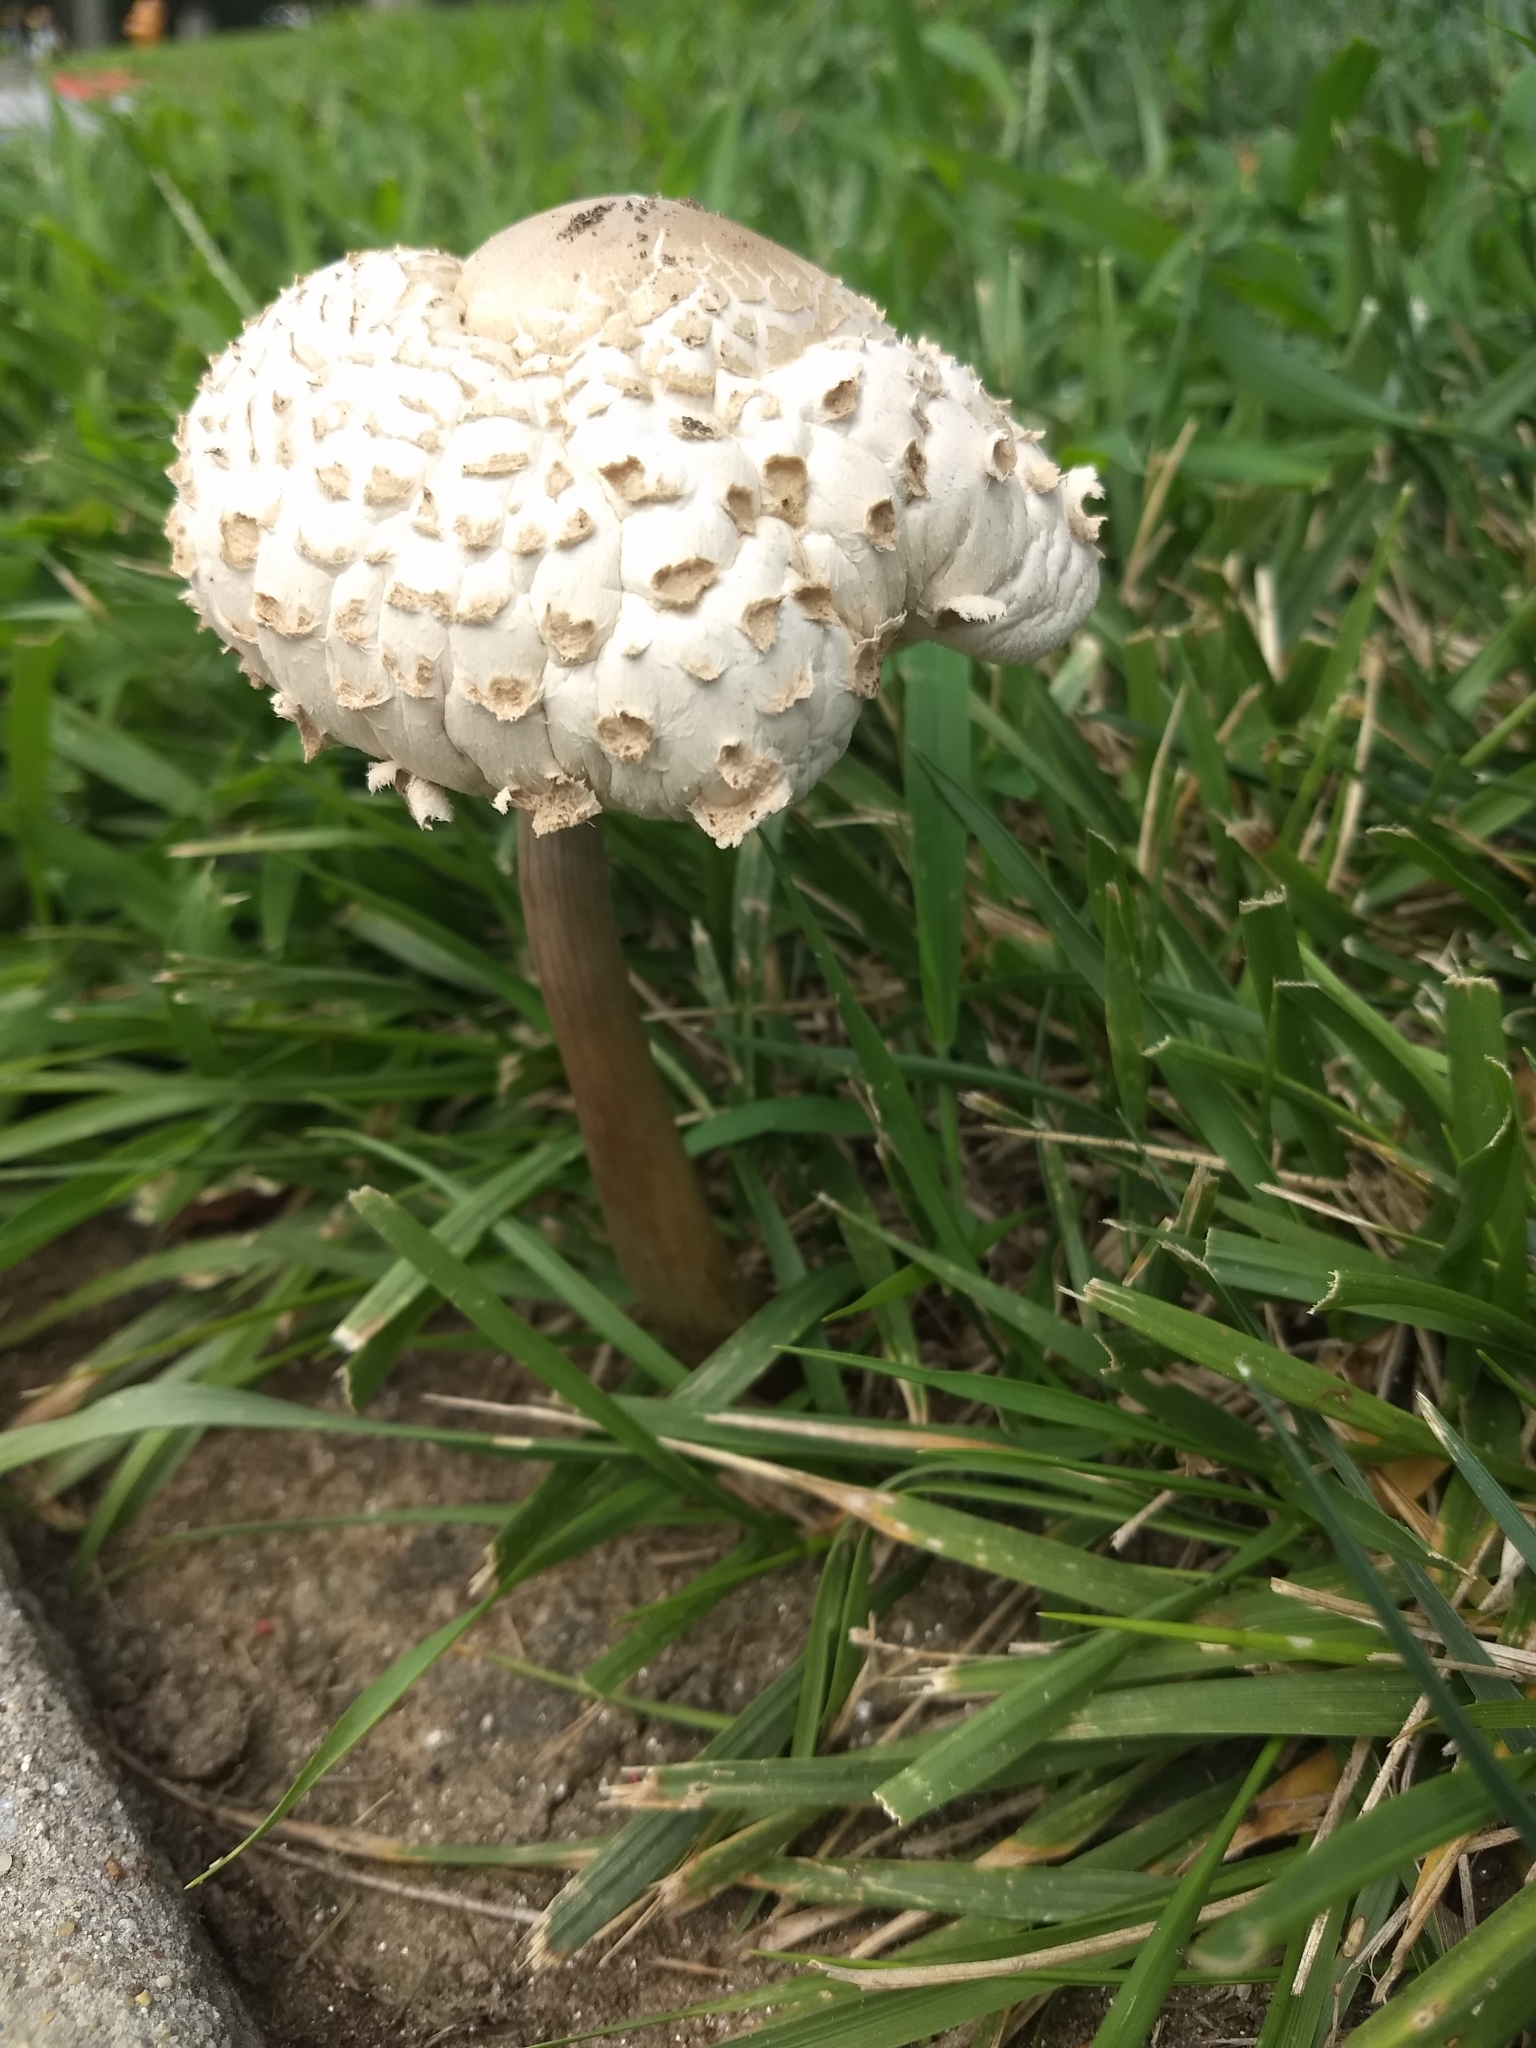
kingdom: Fungi
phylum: Basidiomycota
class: Agaricomycetes
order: Agaricales
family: Agaricaceae
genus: Chlorophyllum
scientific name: Chlorophyllum molybdites
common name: False parasol
